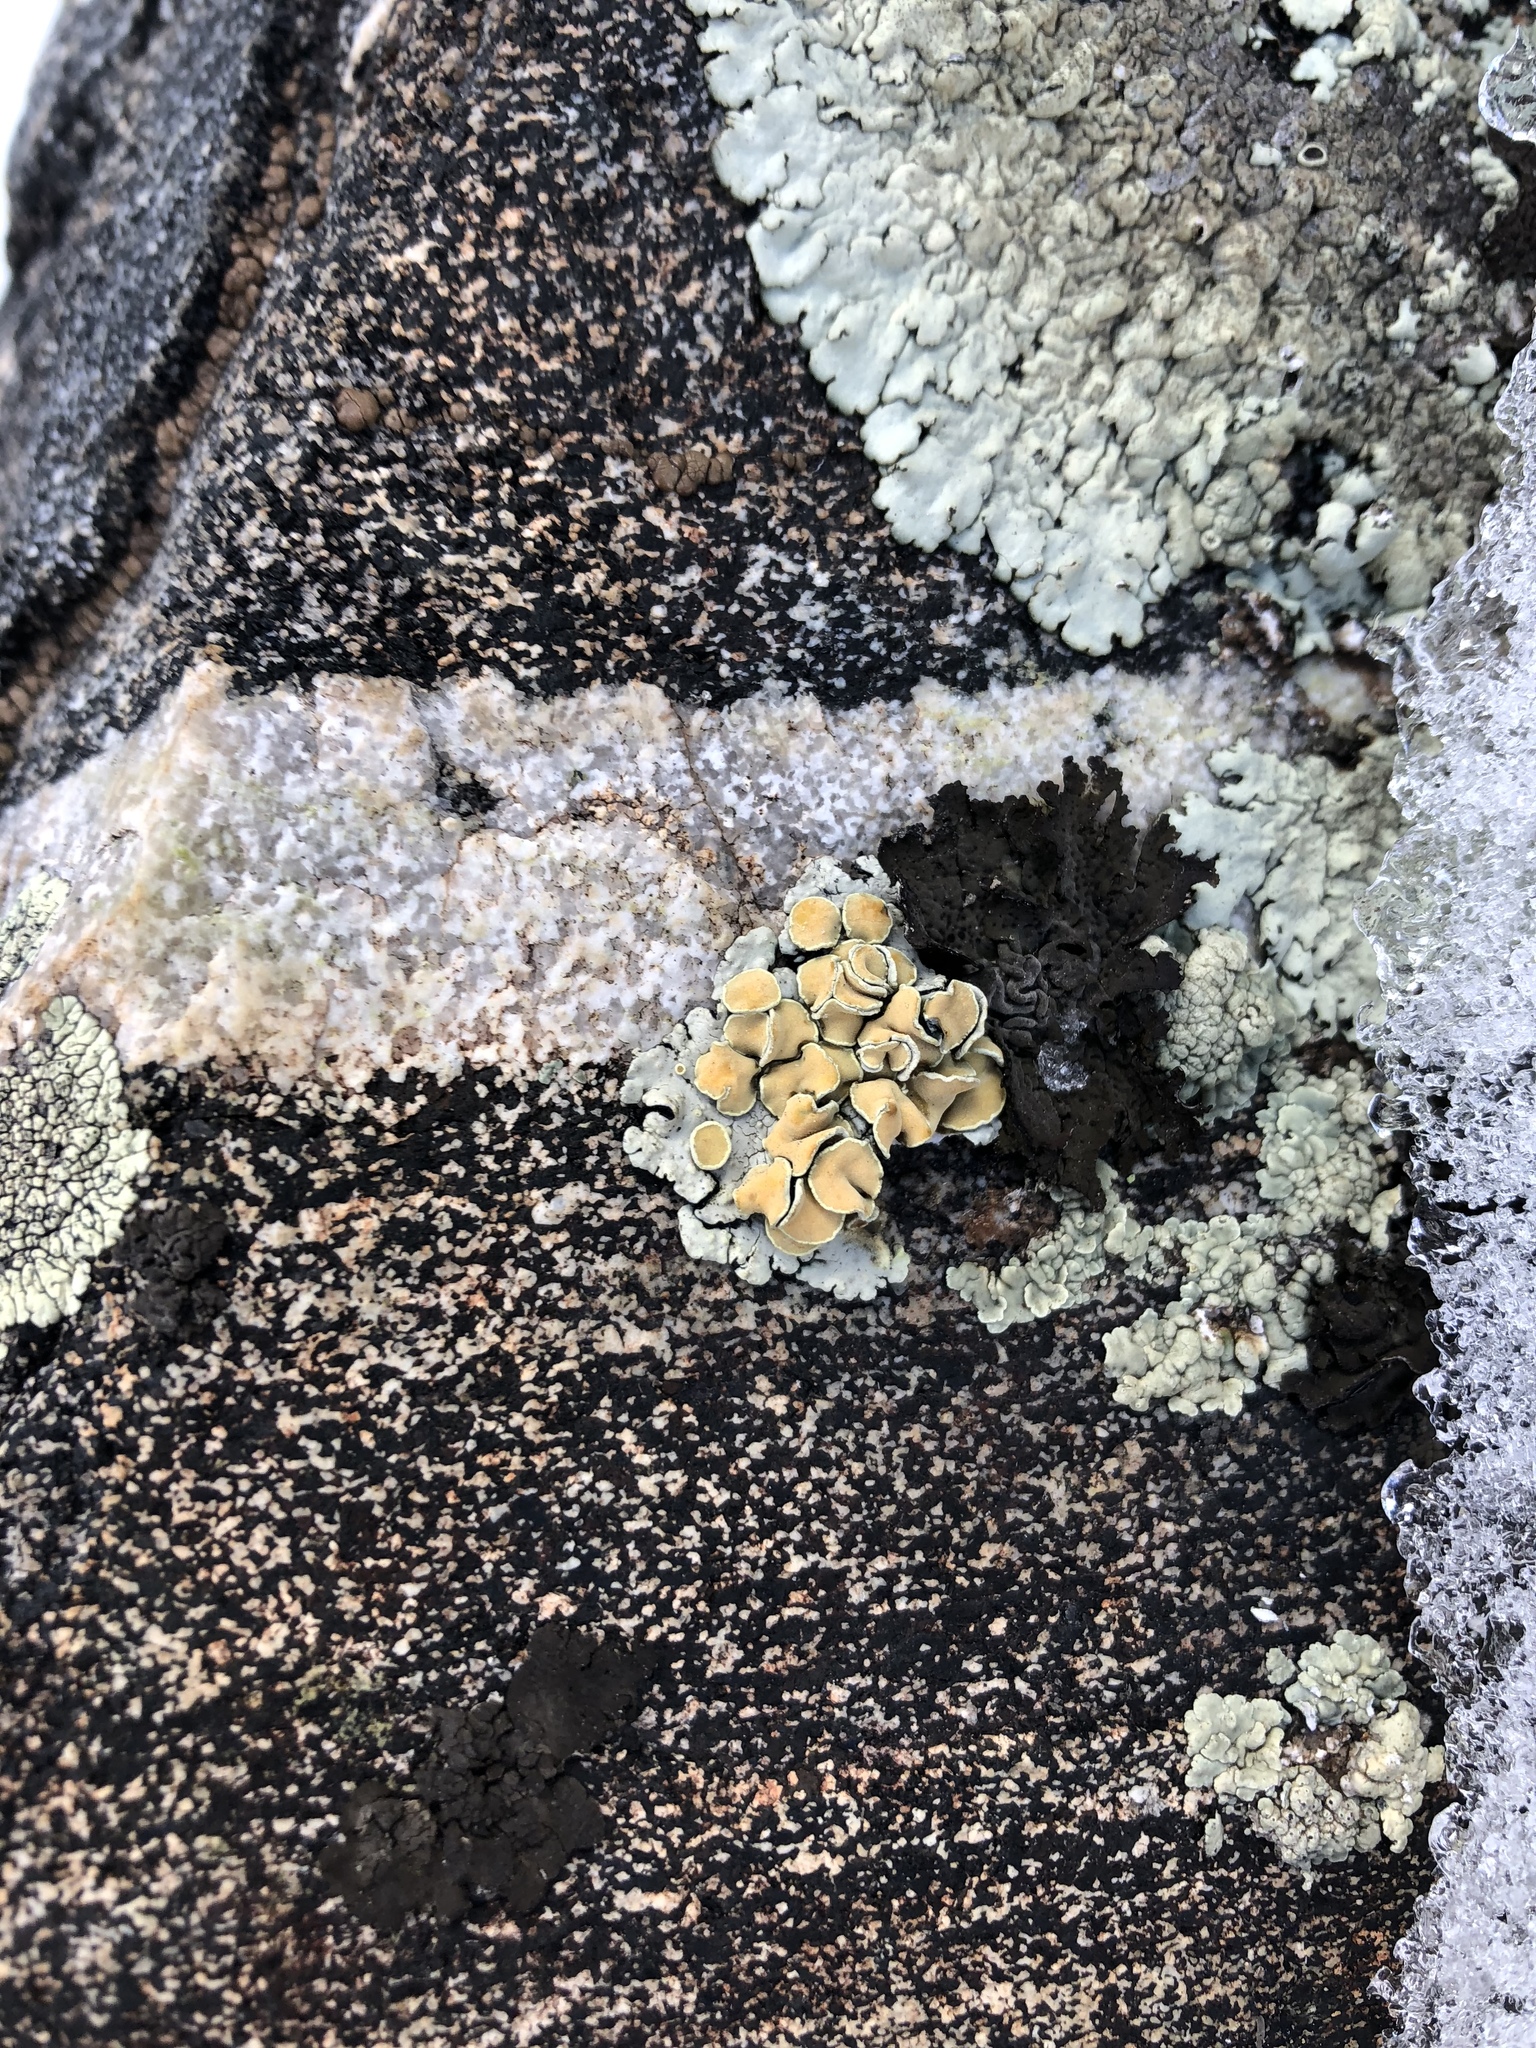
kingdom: Fungi
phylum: Ascomycota
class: Lecanoromycetes
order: Lecanorales
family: Lecanoraceae
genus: Omphalodina
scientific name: Omphalodina chrysoleuca
